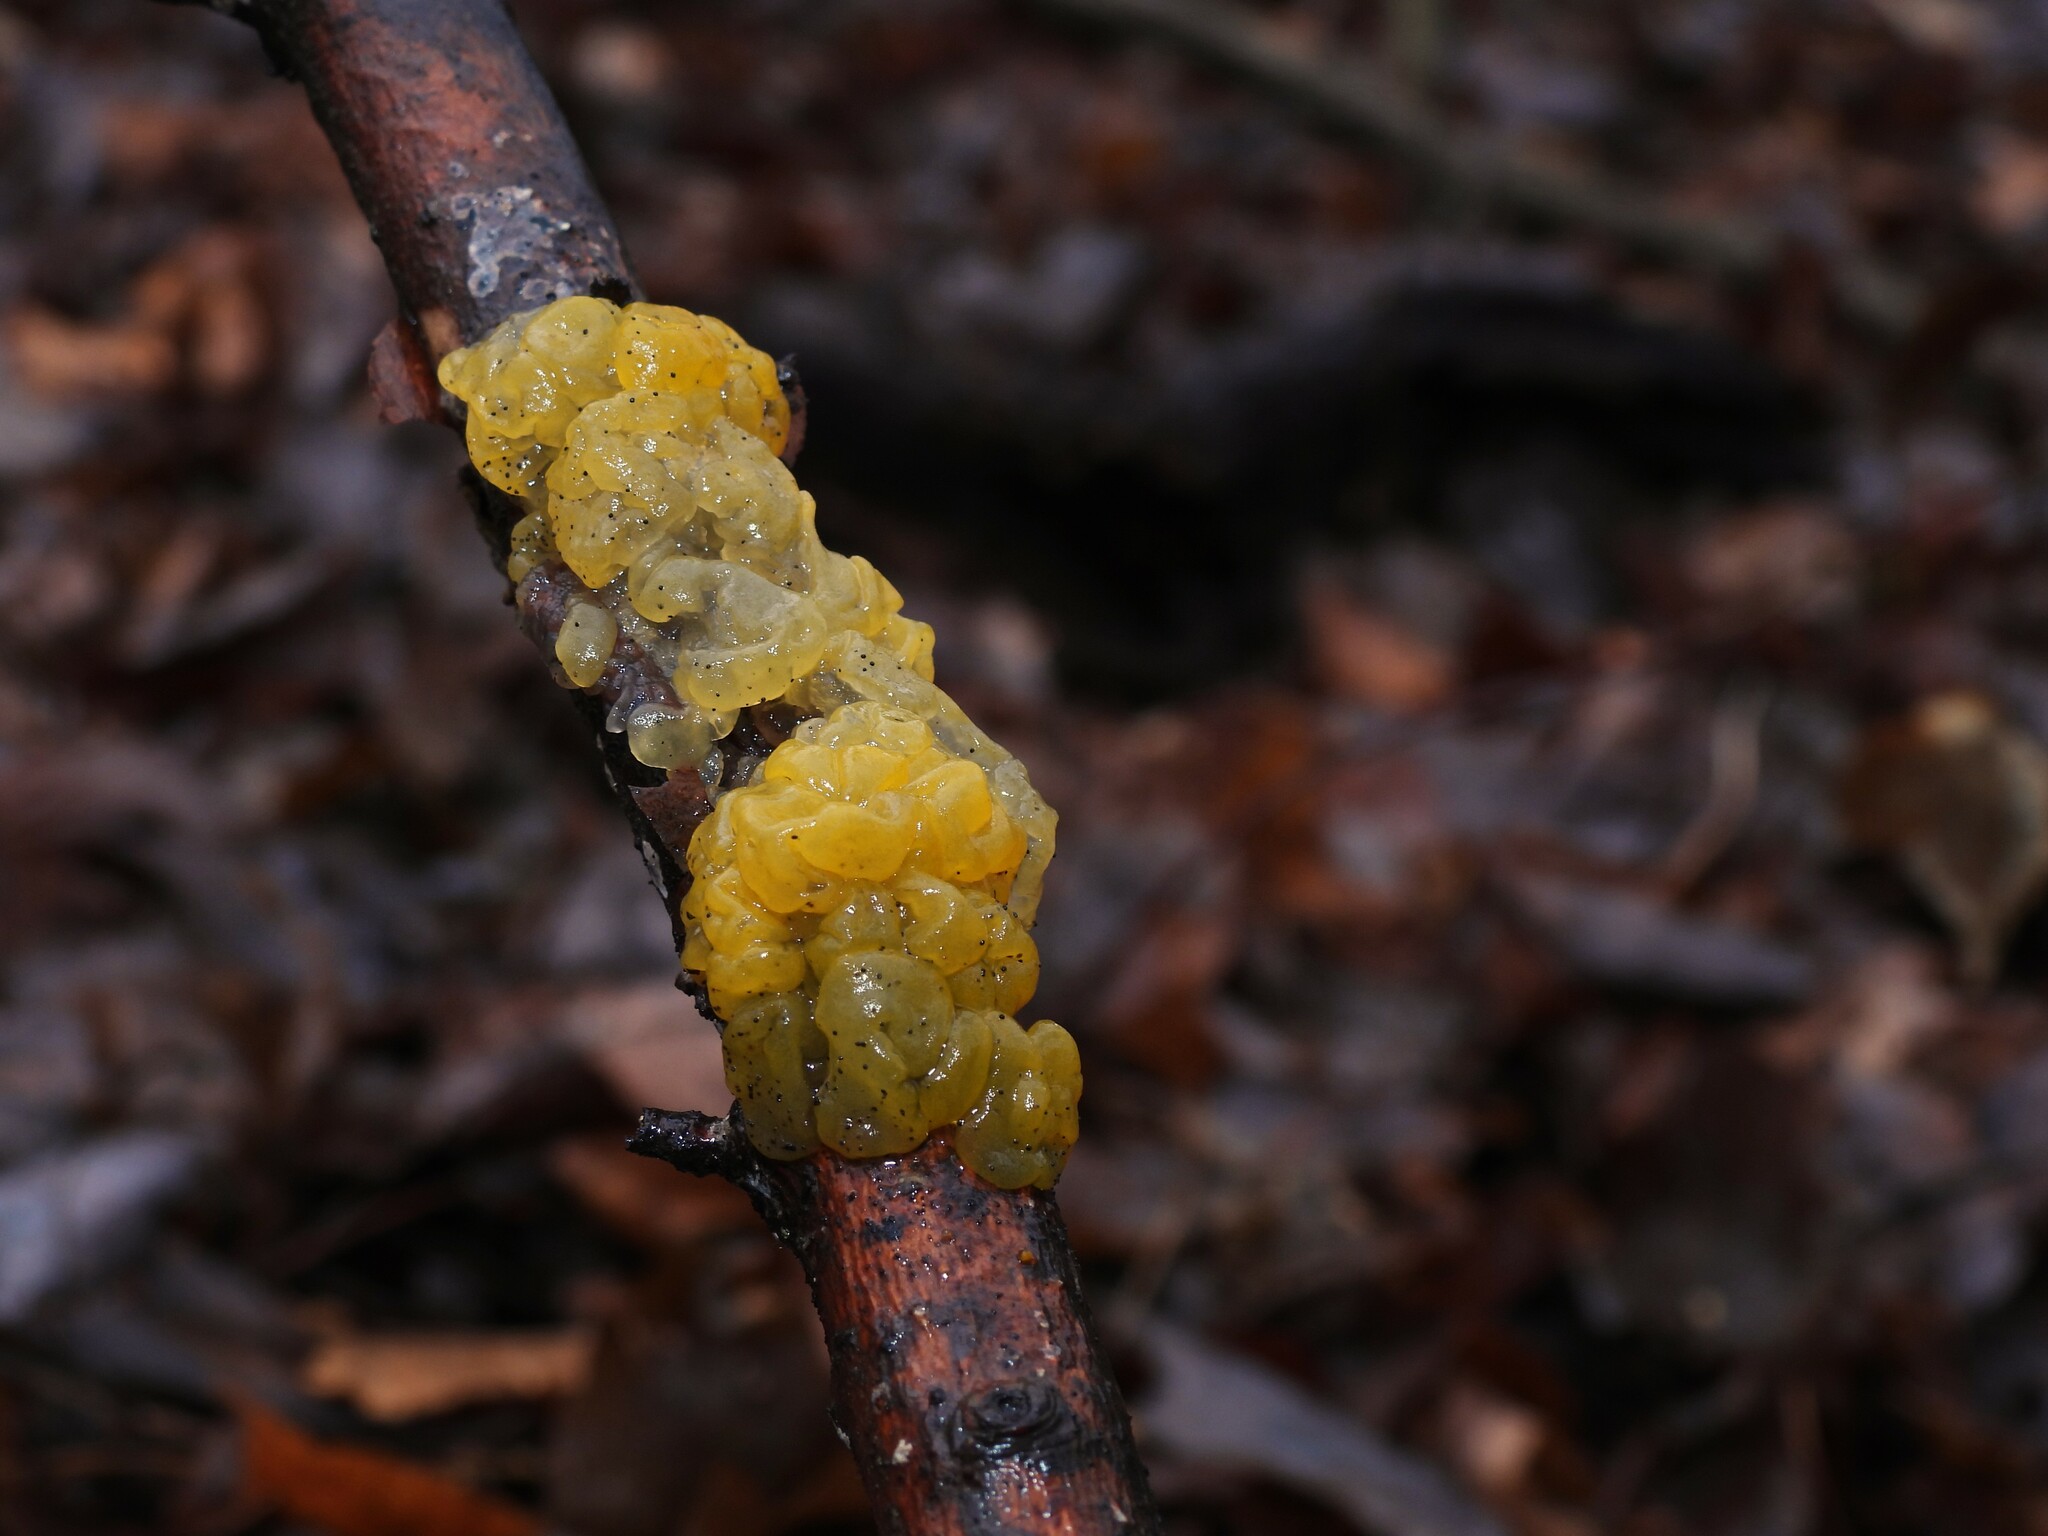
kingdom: Fungi
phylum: Basidiomycota
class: Tremellomycetes
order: Tremellales
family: Tremellaceae
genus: Tremella
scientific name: Tremella mesenterica
